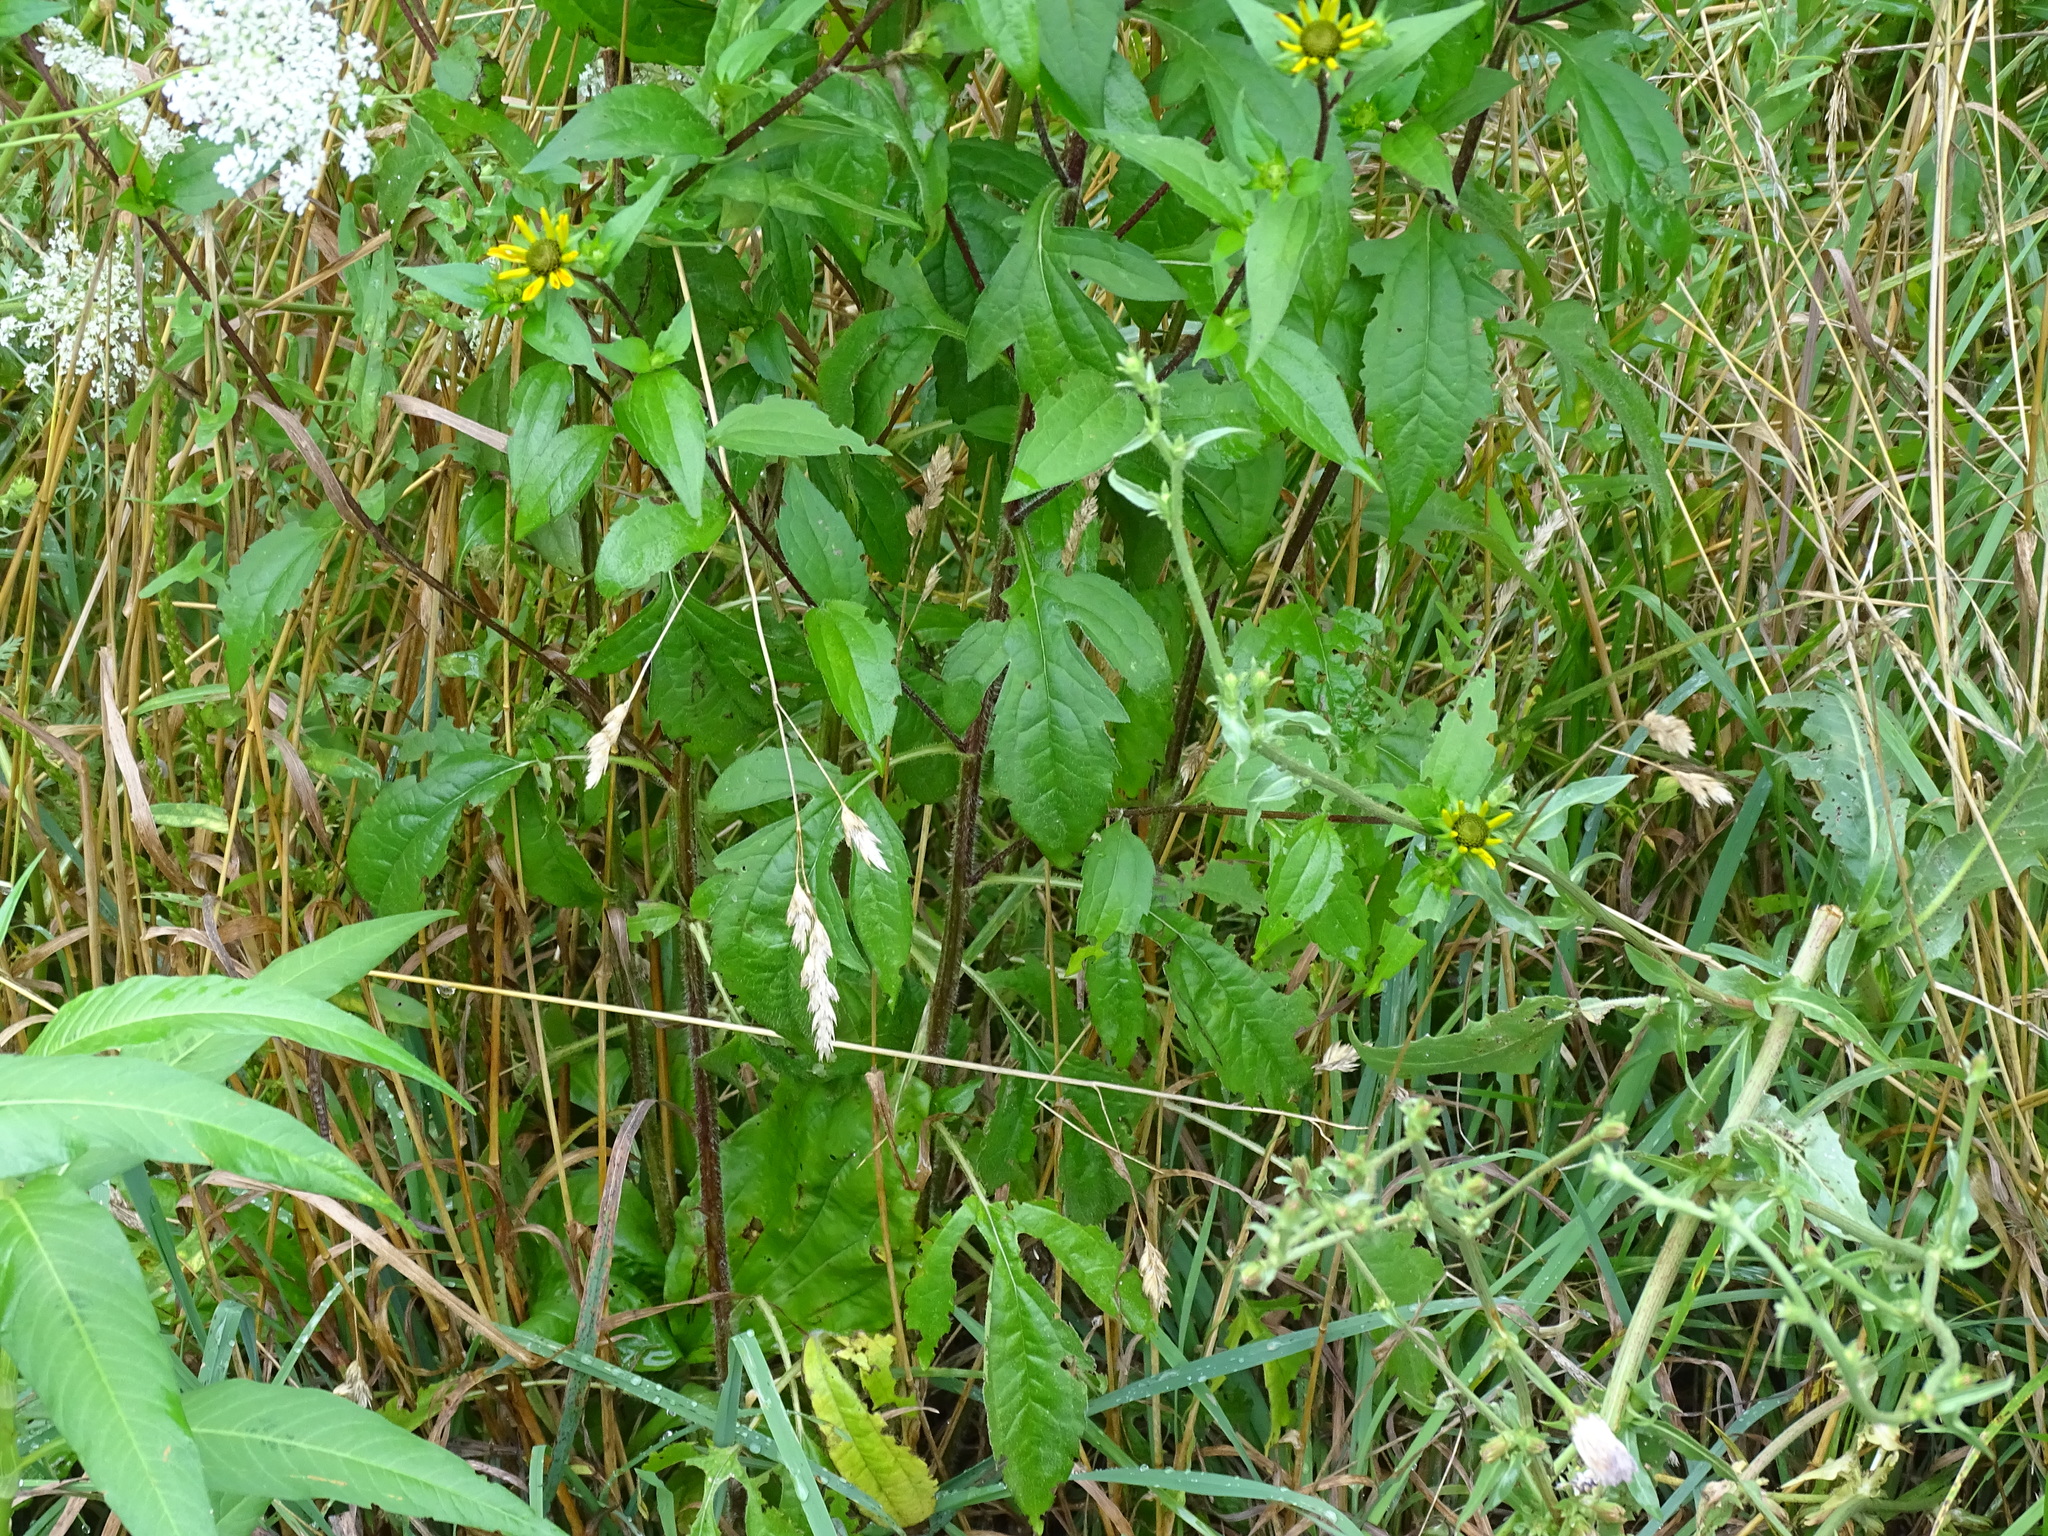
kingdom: Plantae
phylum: Tracheophyta
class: Magnoliopsida
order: Asterales
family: Asteraceae
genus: Rudbeckia
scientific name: Rudbeckia triloba
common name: Thin-leaved coneflower
